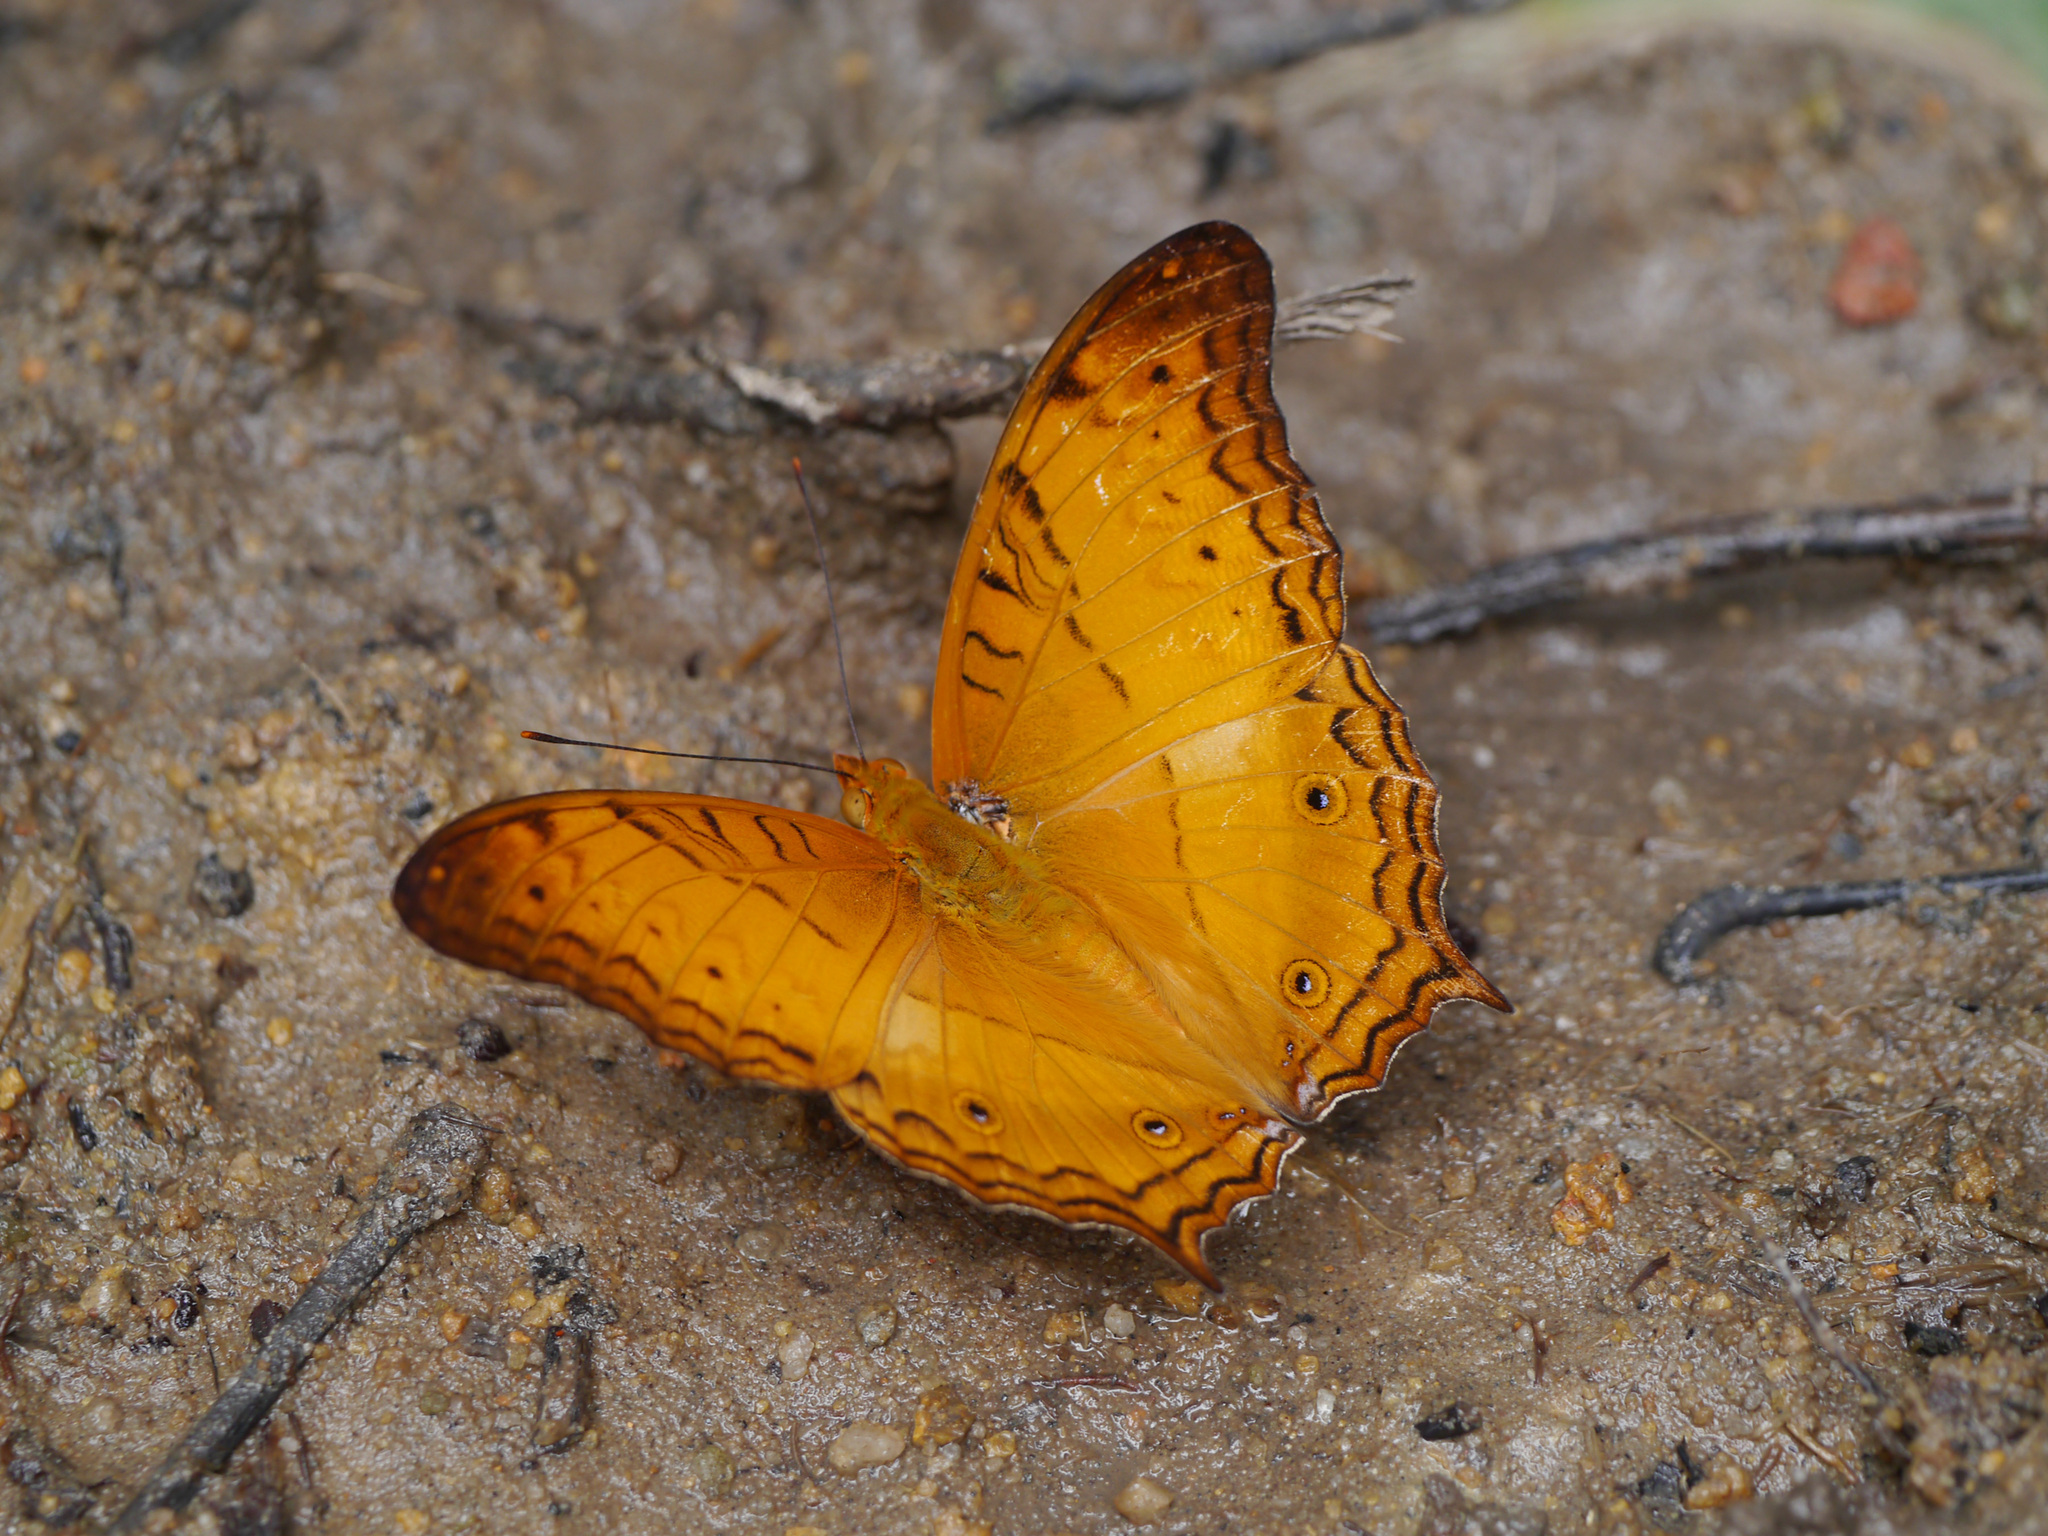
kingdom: Animalia
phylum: Arthropoda
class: Insecta
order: Lepidoptera
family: Nymphalidae
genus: Vindula
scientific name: Vindula deione
